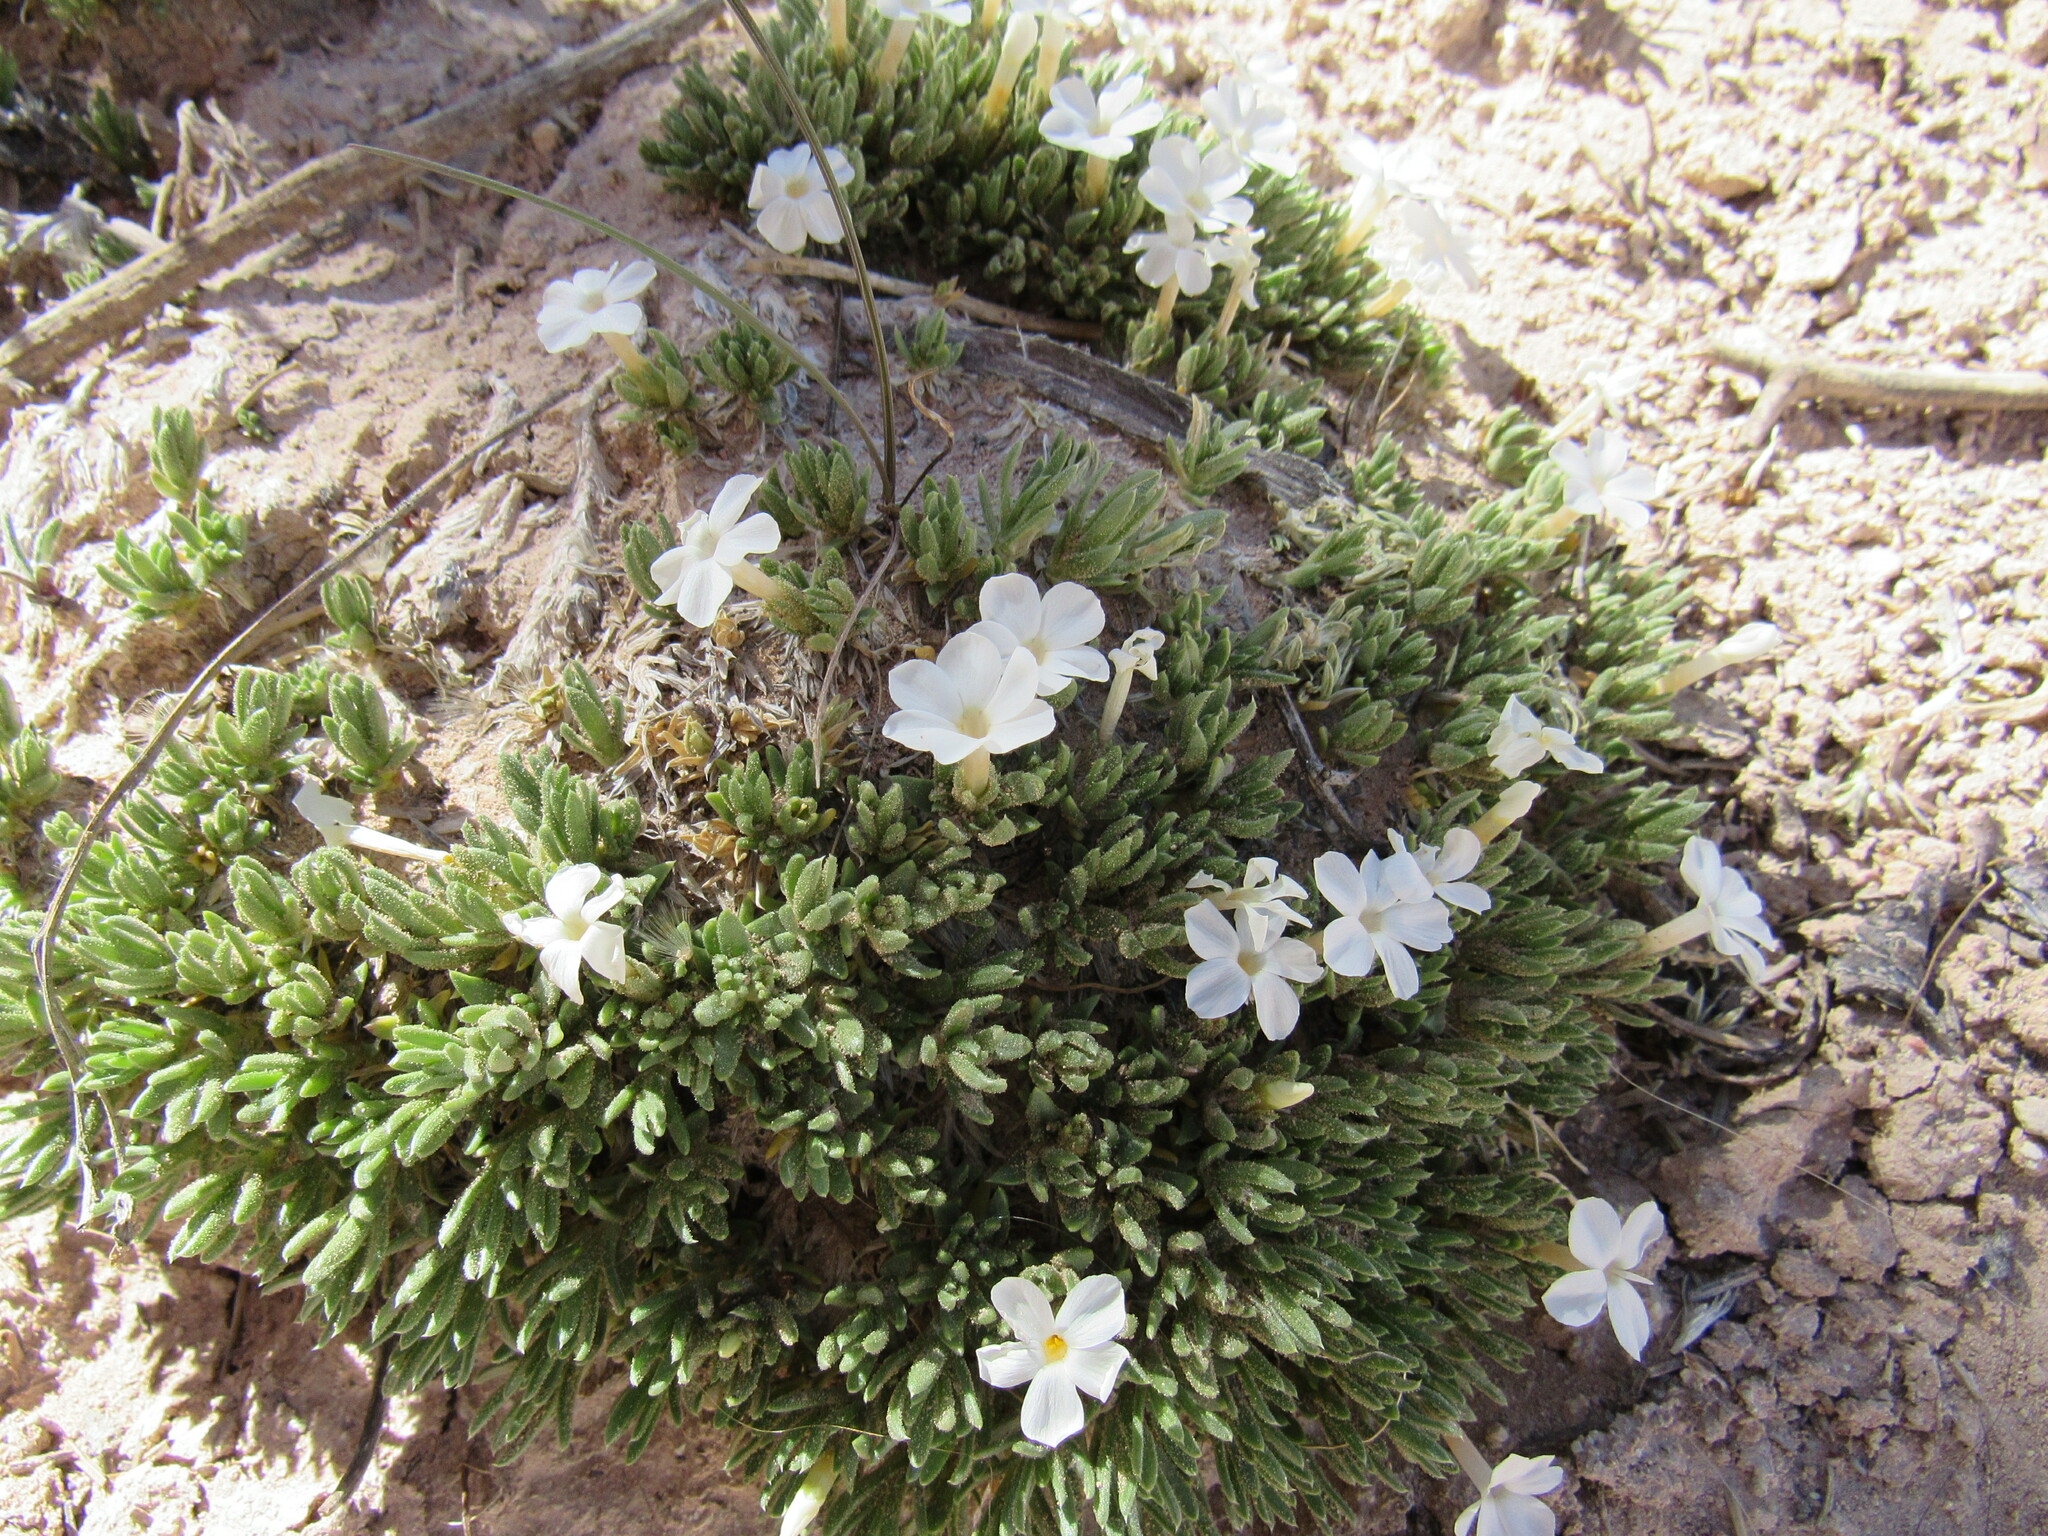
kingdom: Plantae
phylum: Tracheophyta
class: Magnoliopsida
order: Ericales
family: Polemoniaceae
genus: Phlox
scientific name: Phlox pulvinata
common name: Cushion phlox
